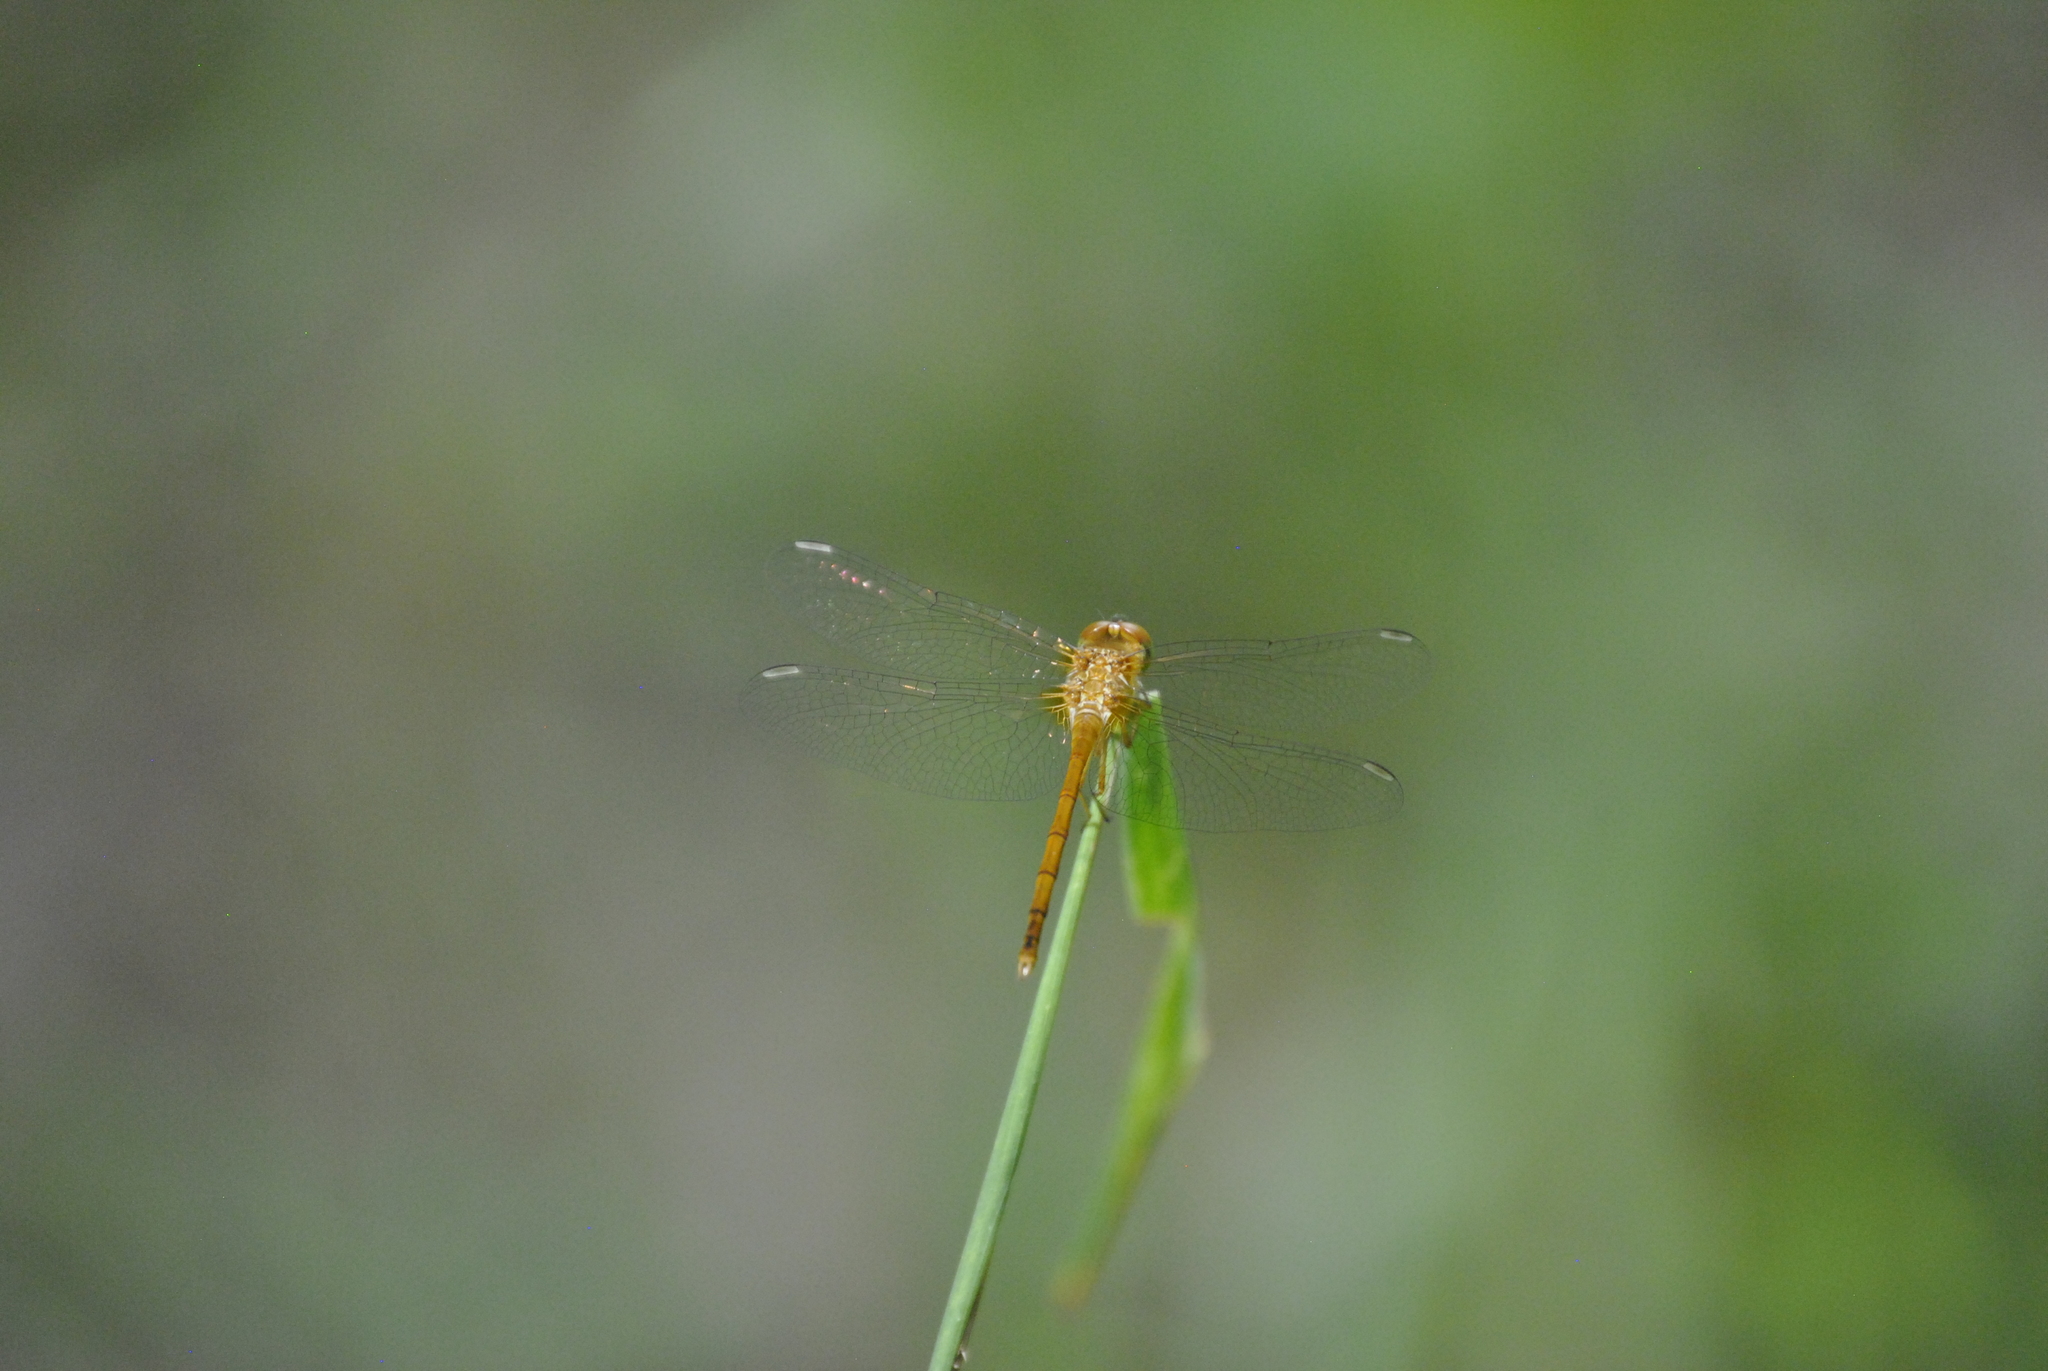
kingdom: Animalia
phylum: Arthropoda
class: Insecta
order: Odonata
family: Libellulidae
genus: Sympetrum
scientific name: Sympetrum vicinum
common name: Autumn meadowhawk
